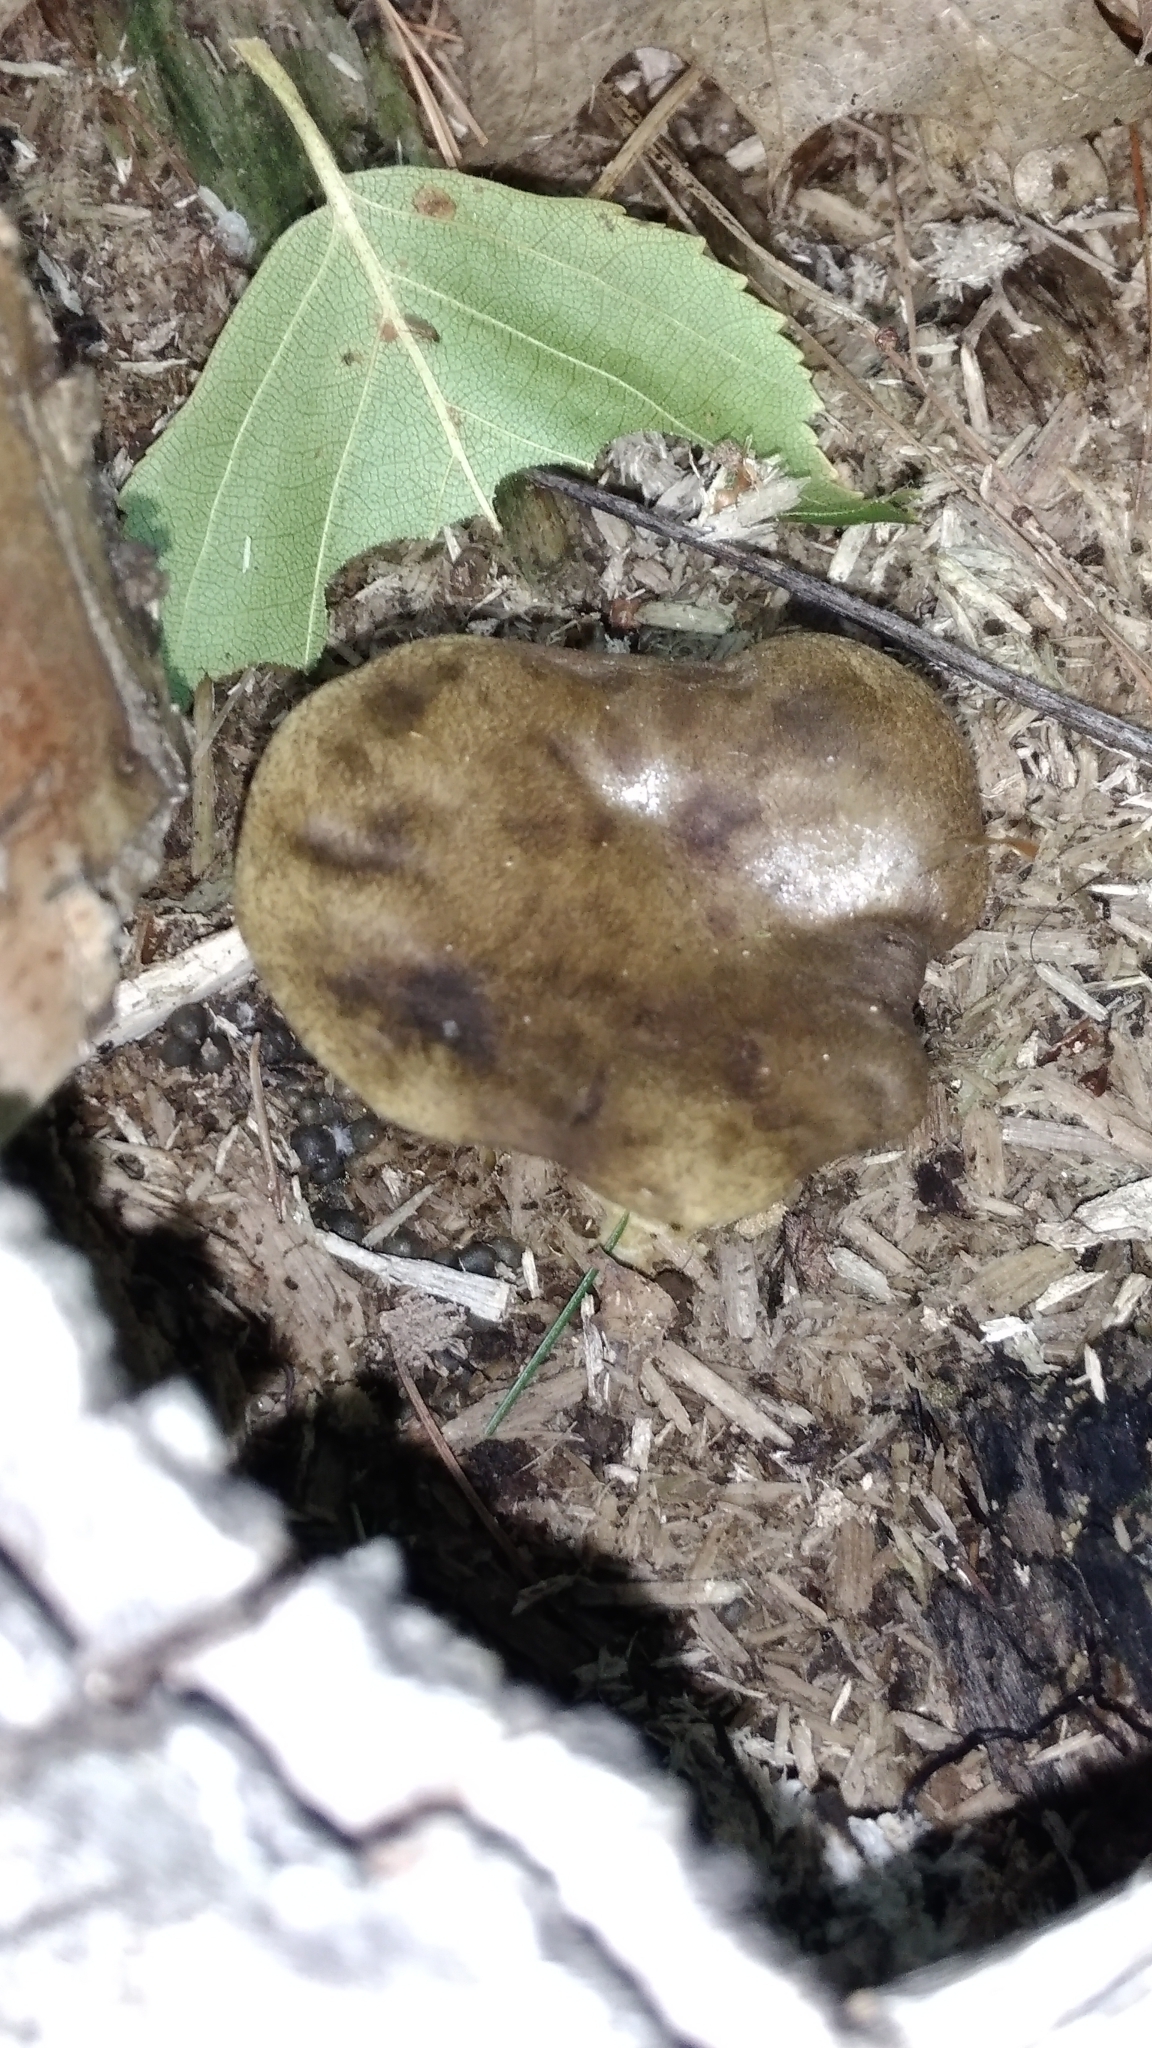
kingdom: Fungi
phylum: Basidiomycota
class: Agaricomycetes
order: Boletales
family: Boletinellaceae
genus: Boletinellus
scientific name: Boletinellus merulioides
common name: Ash tree bolete
